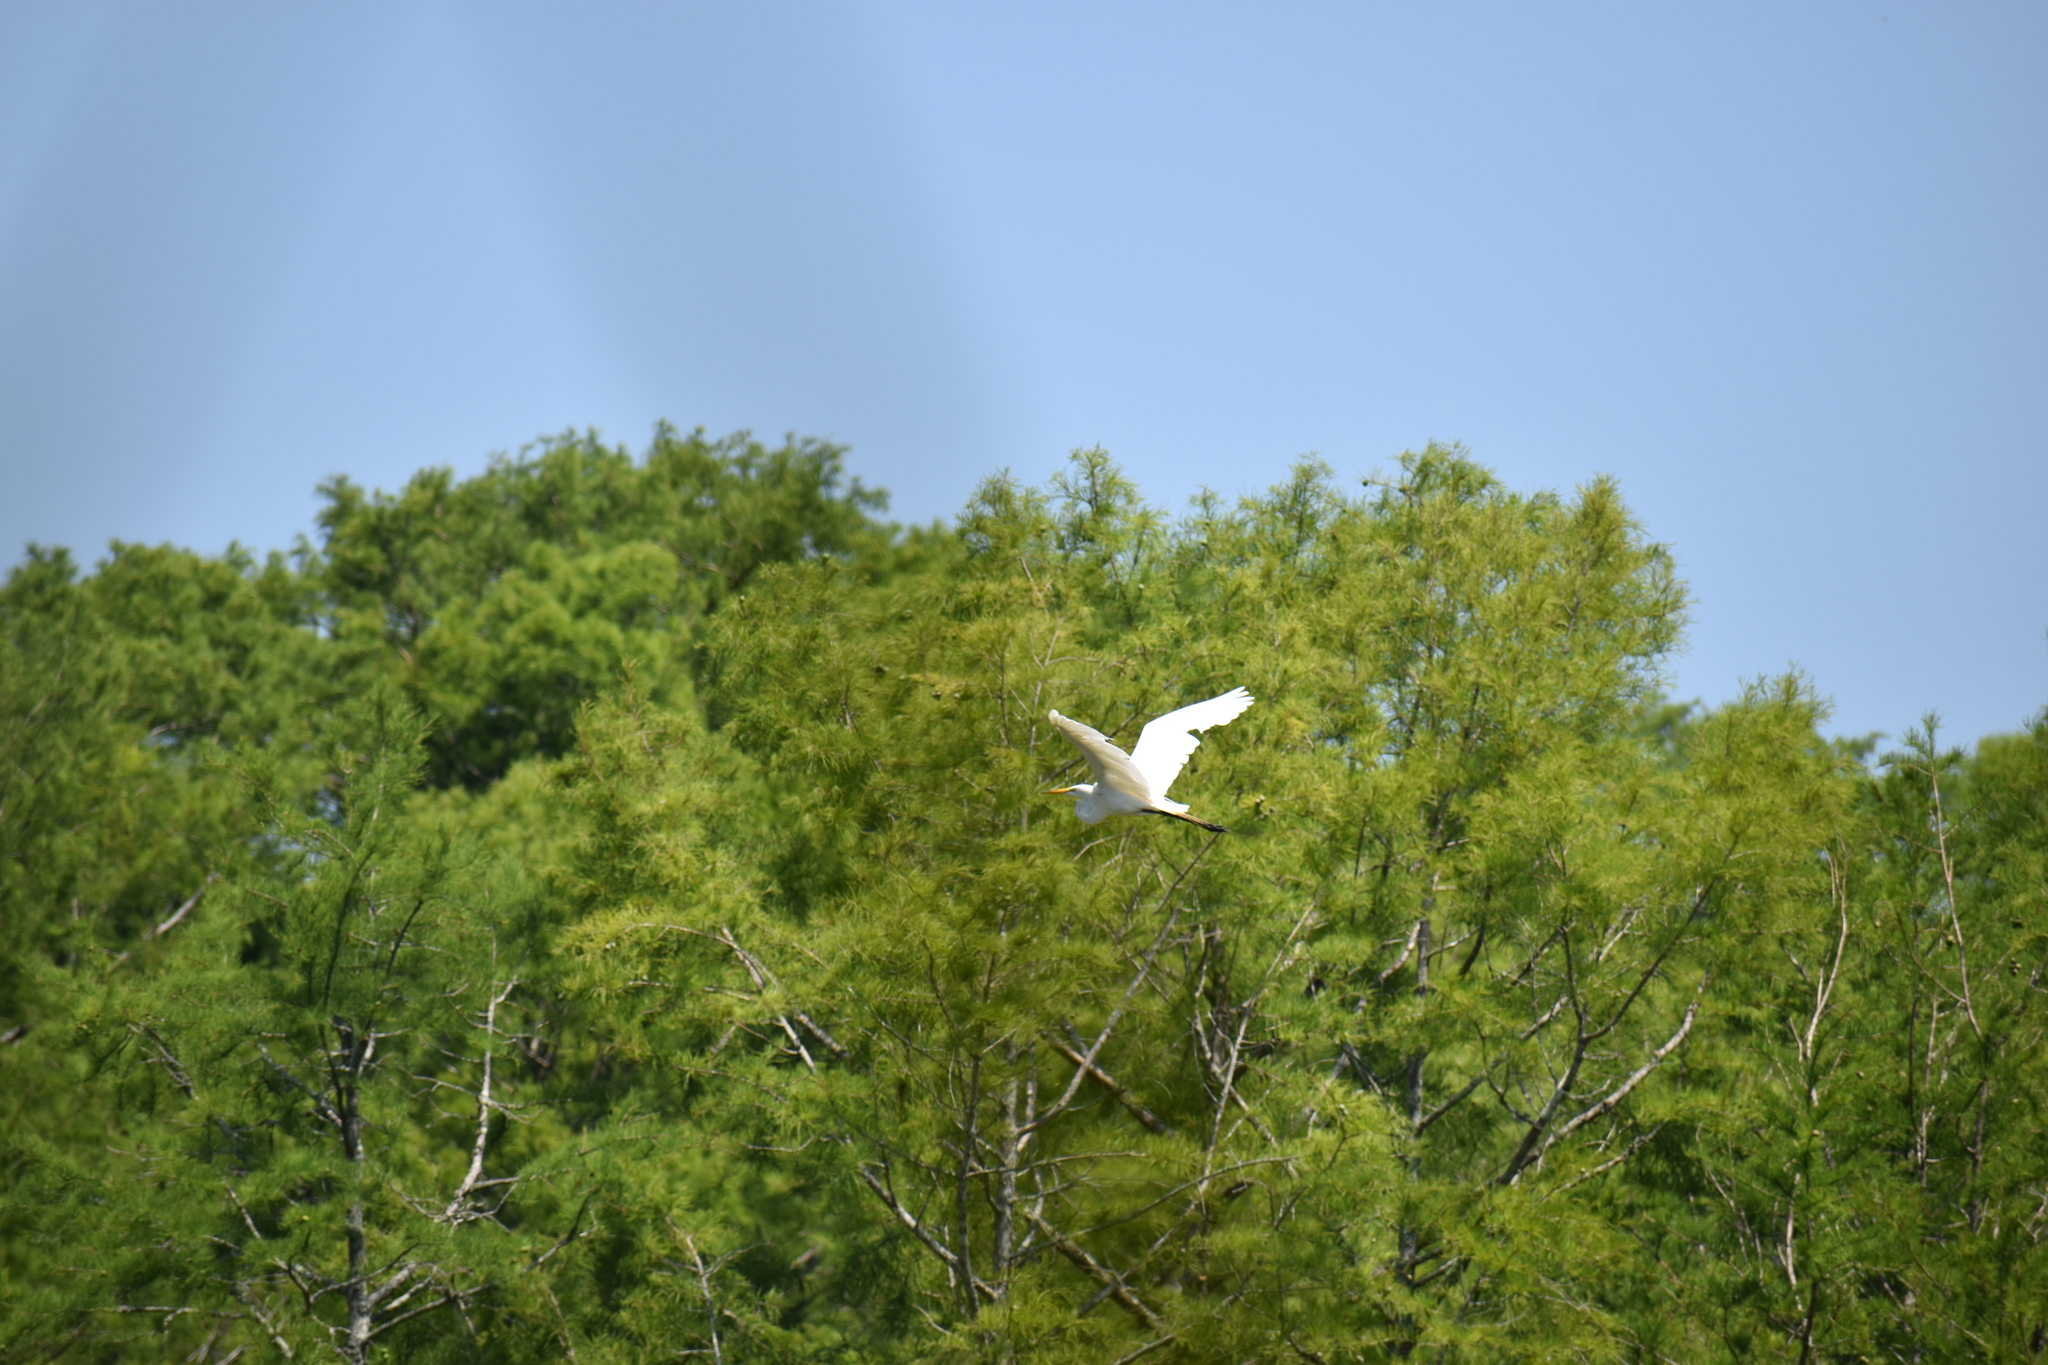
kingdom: Animalia
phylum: Chordata
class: Aves
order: Pelecaniformes
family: Ardeidae
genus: Ardea
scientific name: Ardea alba
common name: Great egret
